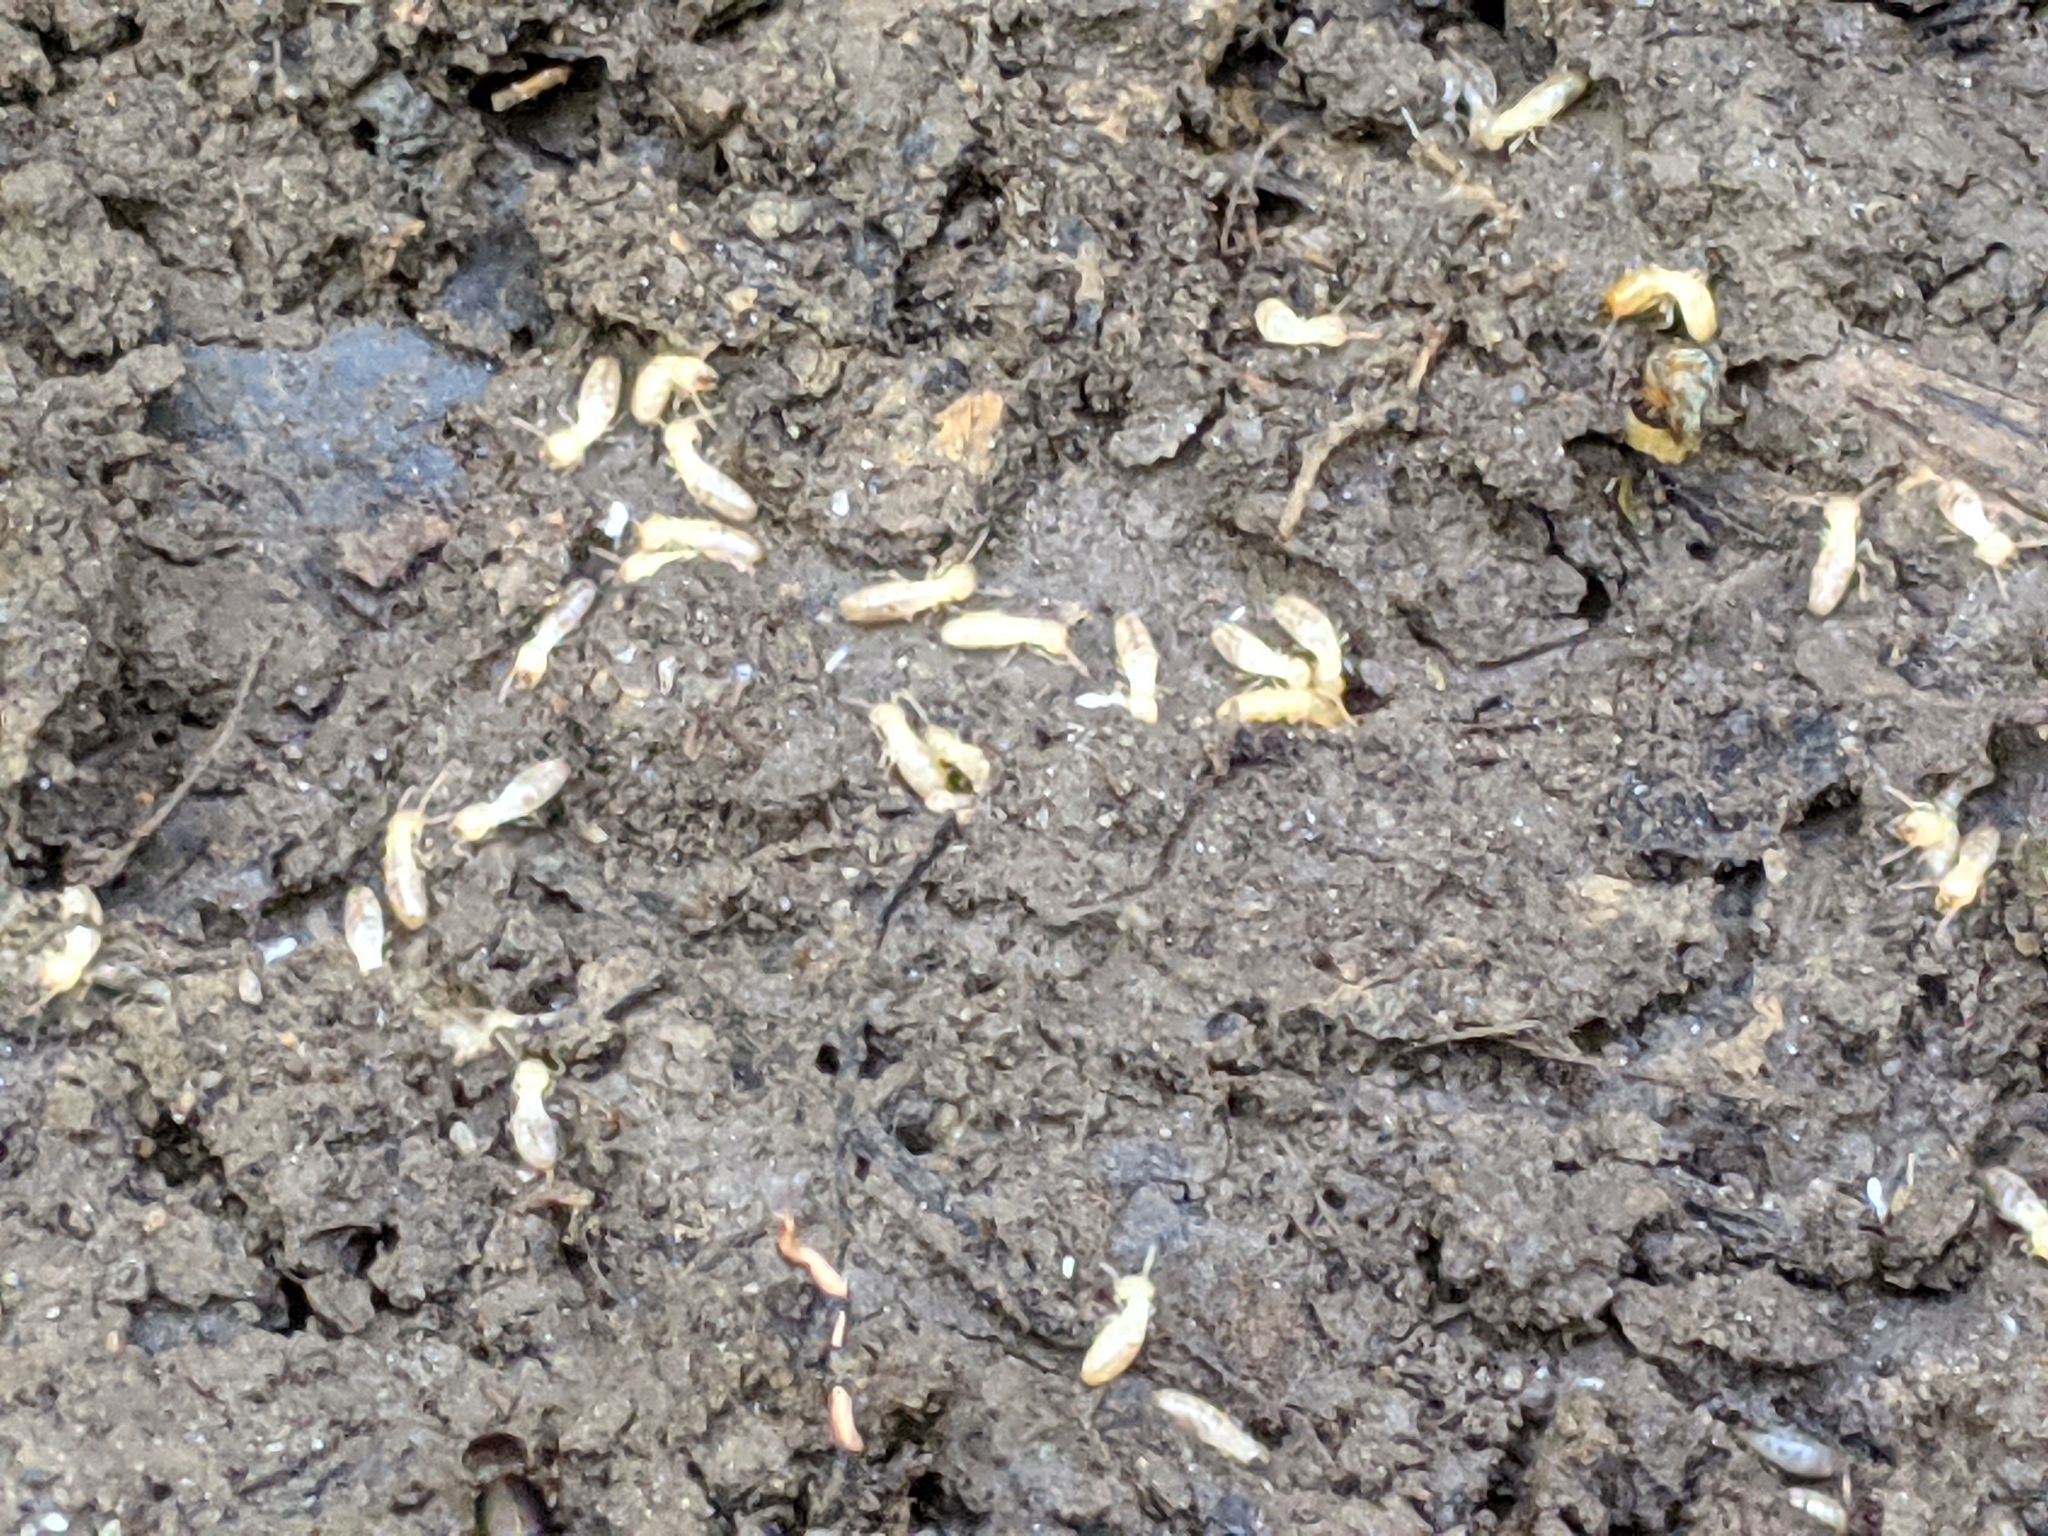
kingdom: Animalia
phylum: Arthropoda
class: Insecta
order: Blattodea
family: Rhinotermitidae
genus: Reticulitermes
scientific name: Reticulitermes flavipes
